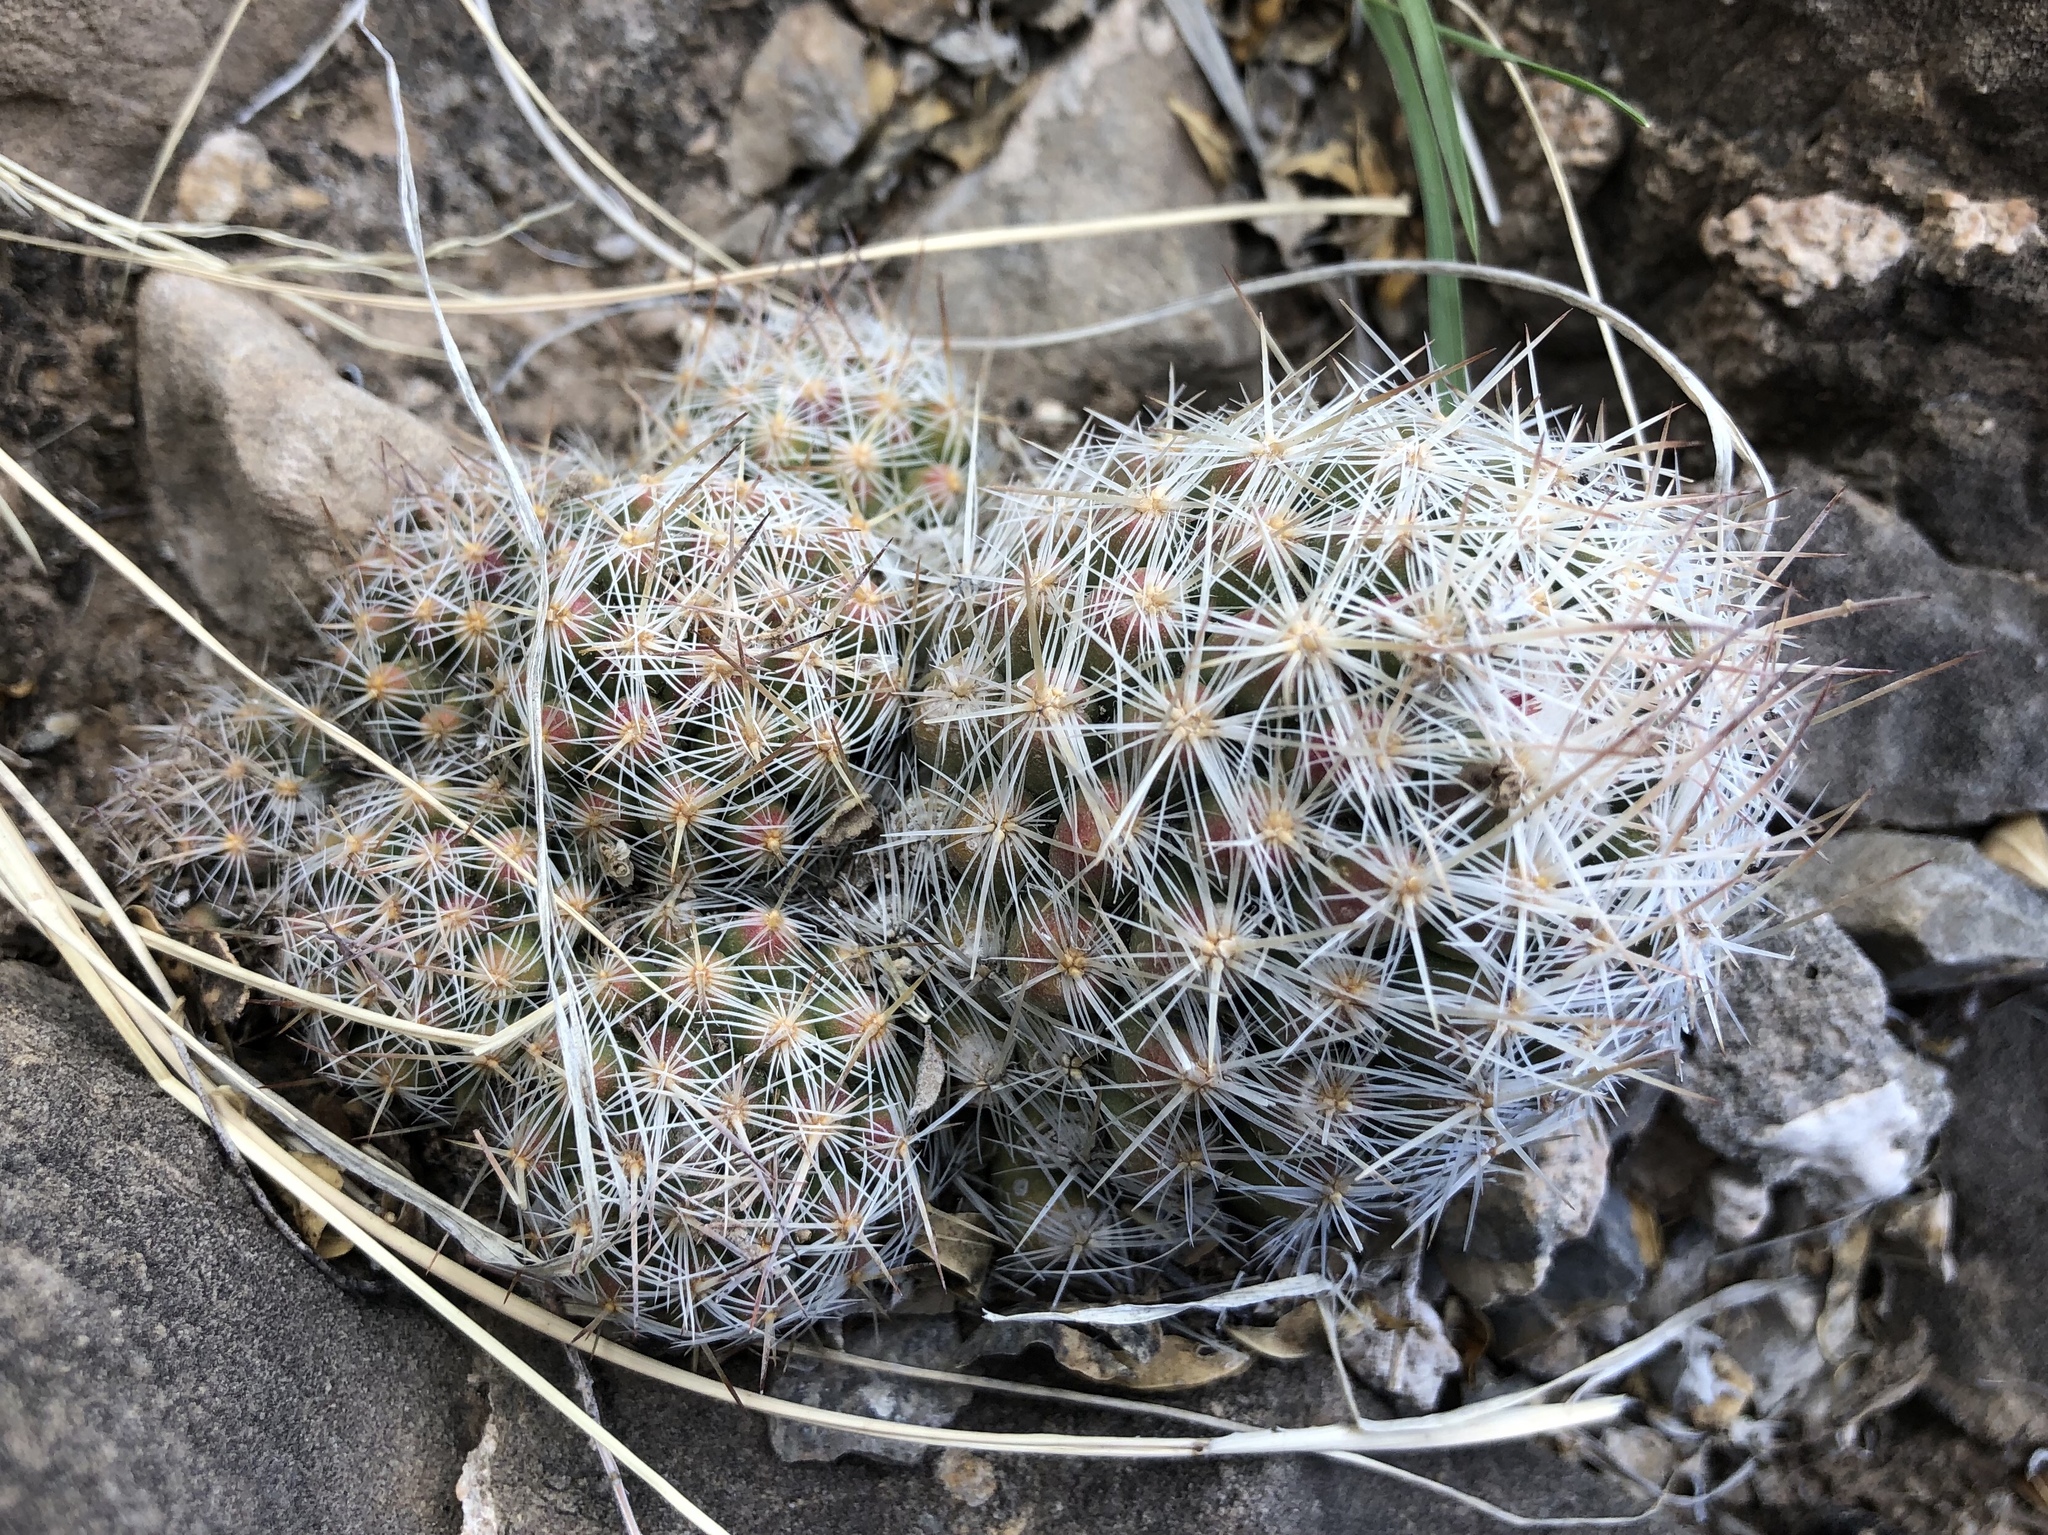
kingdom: Plantae
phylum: Tracheophyta
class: Magnoliopsida
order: Caryophyllales
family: Cactaceae
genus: Pelecyphora
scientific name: Pelecyphora tuberculosa
